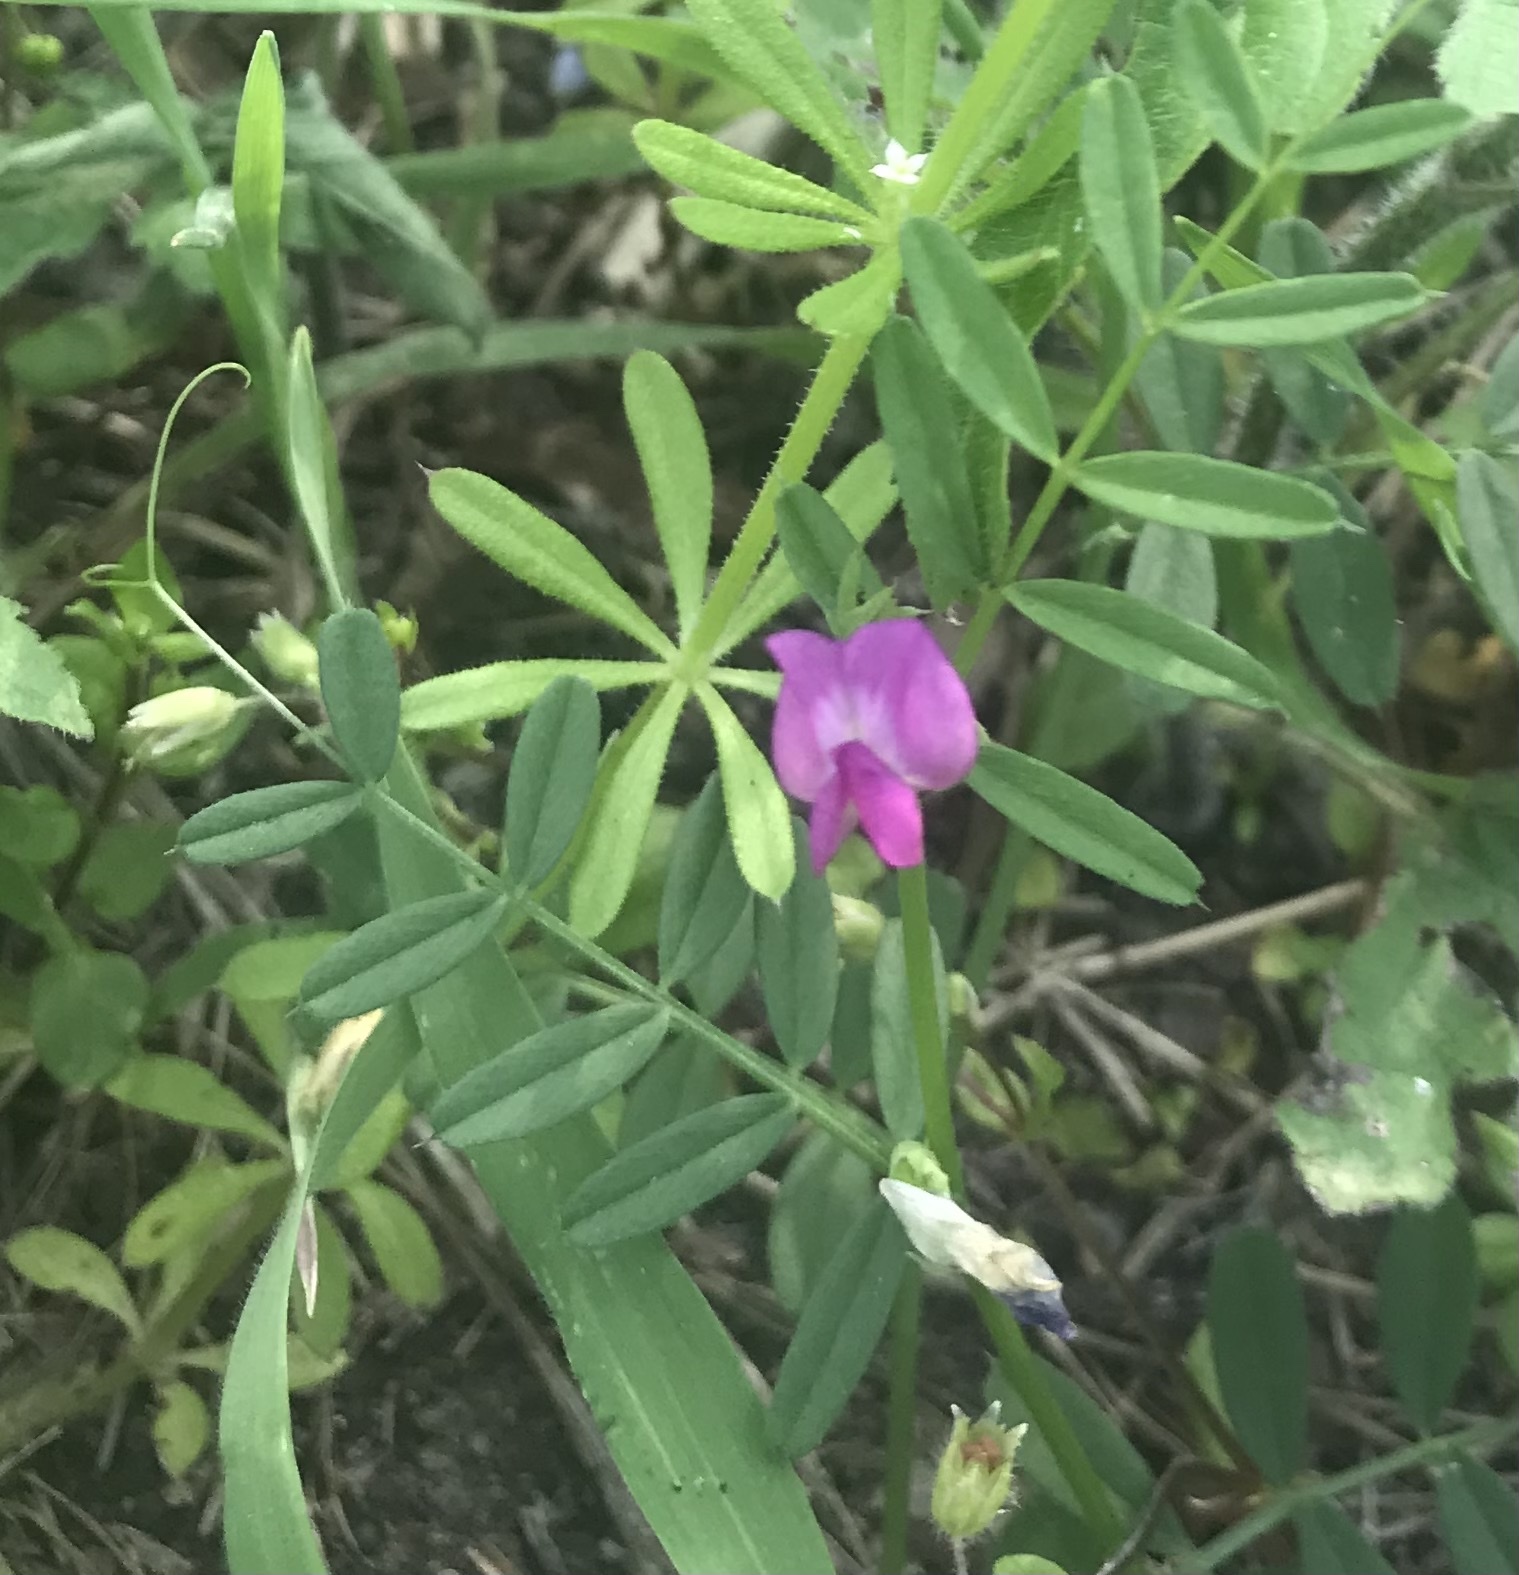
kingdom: Plantae
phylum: Tracheophyta
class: Magnoliopsida
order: Fabales
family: Fabaceae
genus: Vicia
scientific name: Vicia sativa
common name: Garden vetch
